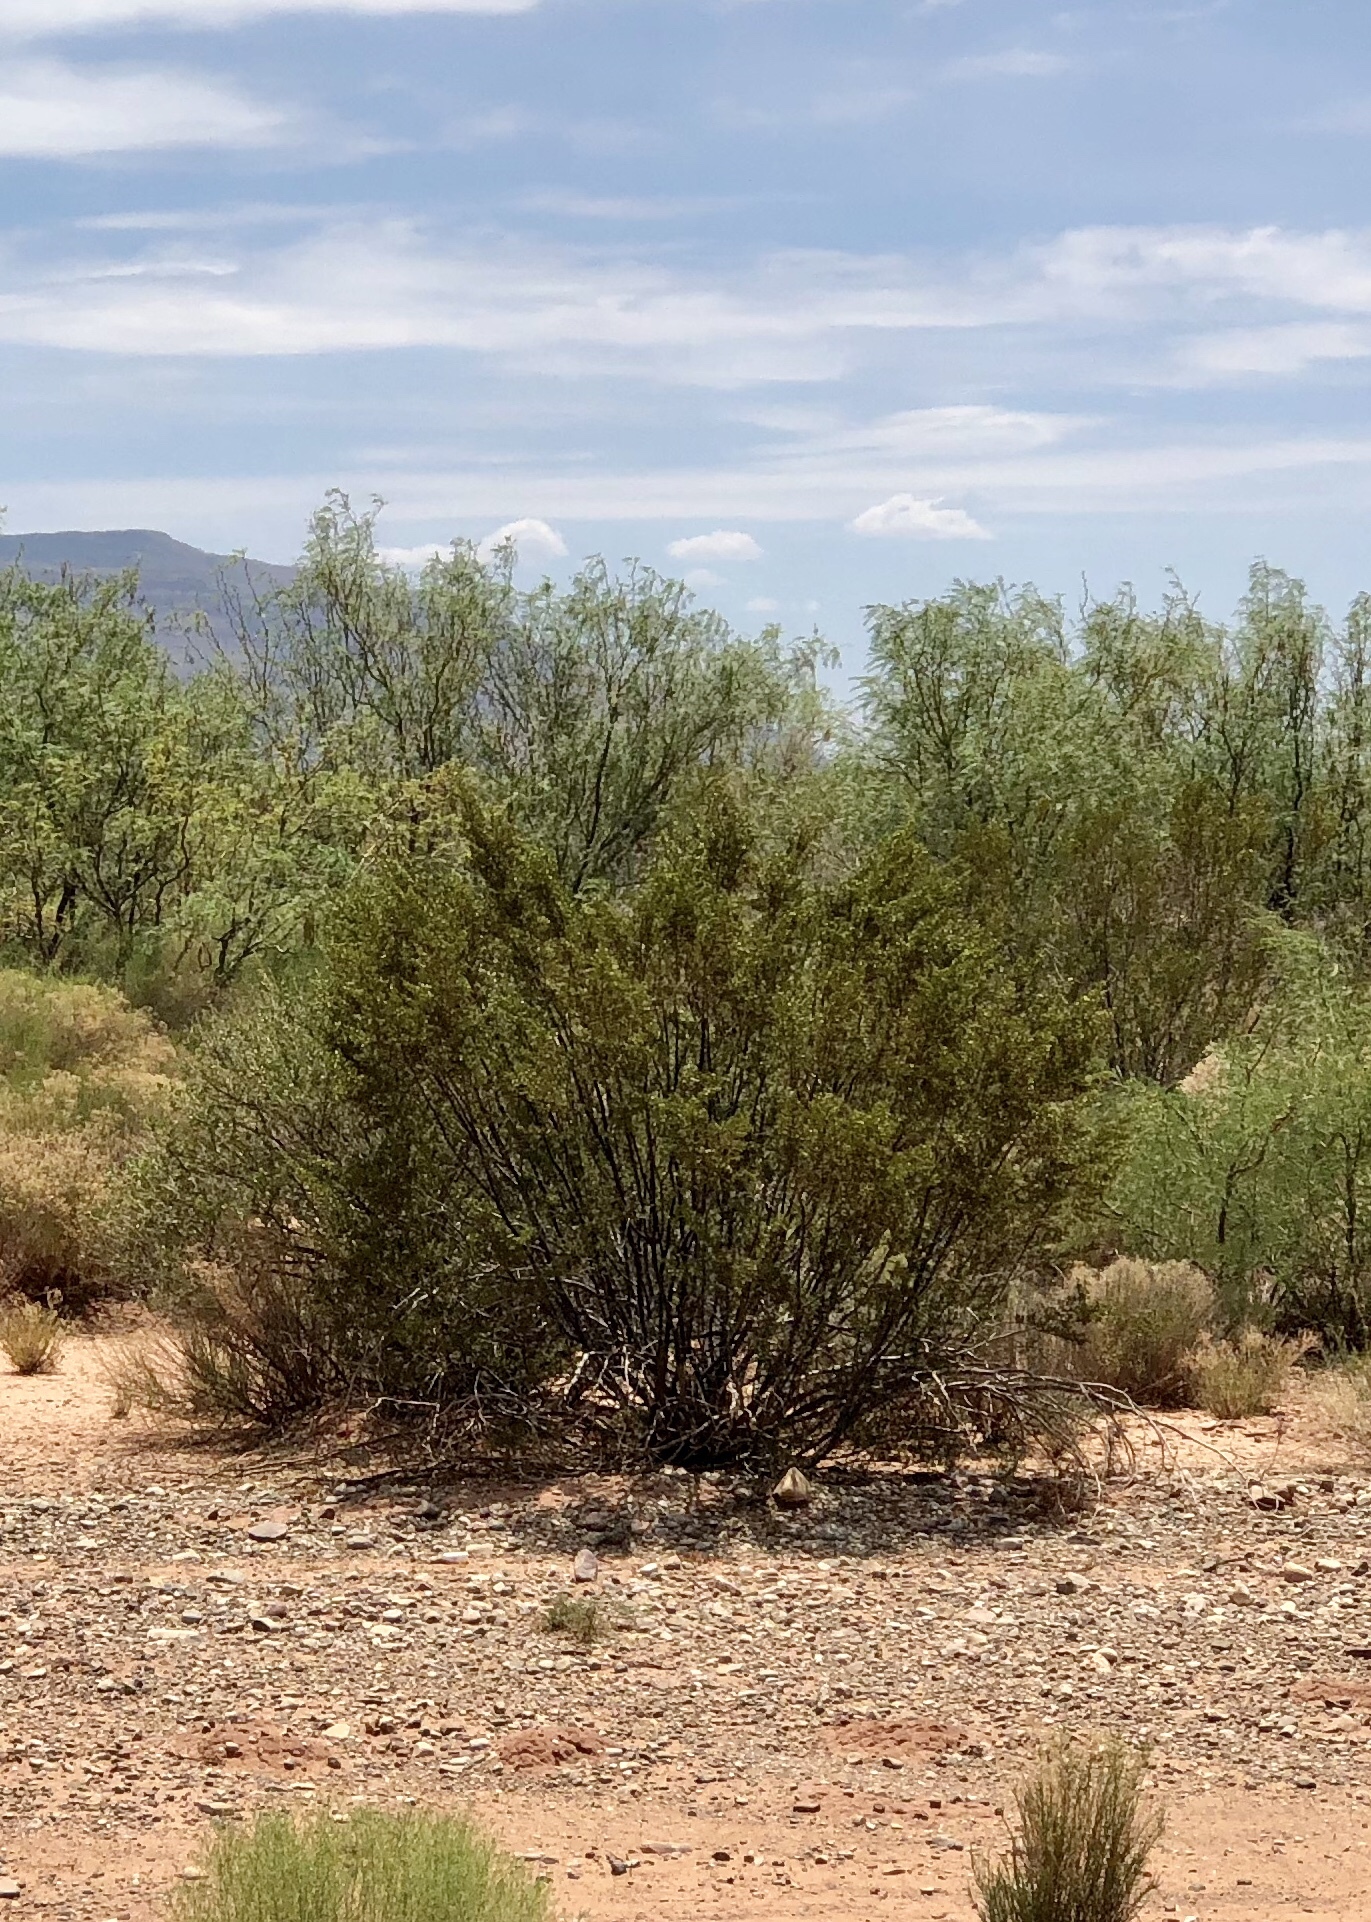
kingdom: Plantae
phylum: Tracheophyta
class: Magnoliopsida
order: Zygophyllales
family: Zygophyllaceae
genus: Larrea
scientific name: Larrea tridentata
